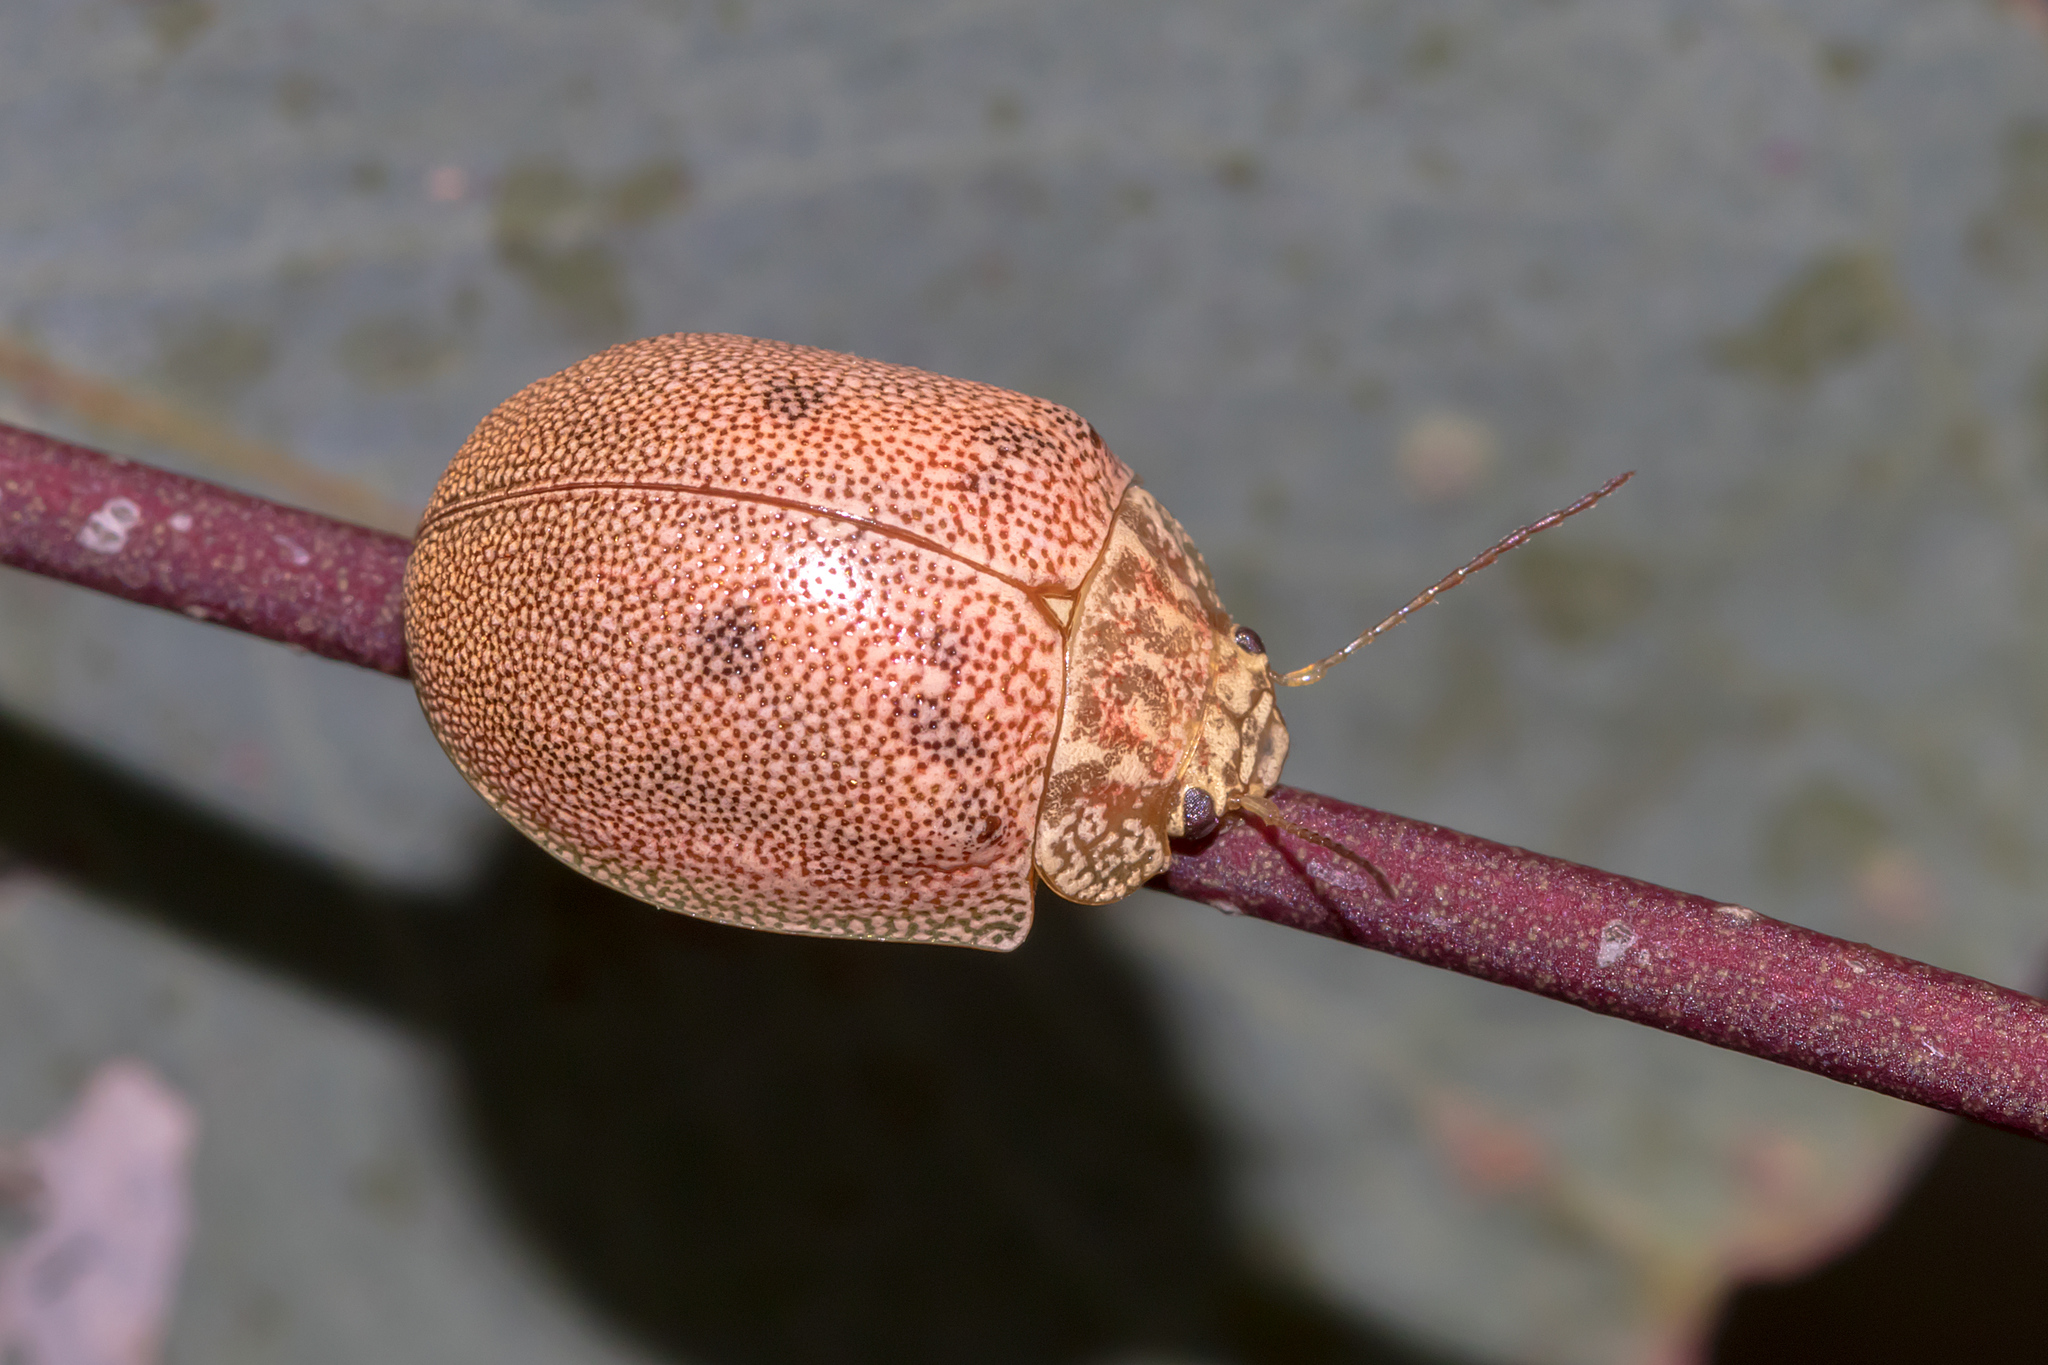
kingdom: Animalia
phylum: Arthropoda
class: Insecta
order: Coleoptera
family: Chrysomelidae
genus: Paropsis
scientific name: Paropsis
